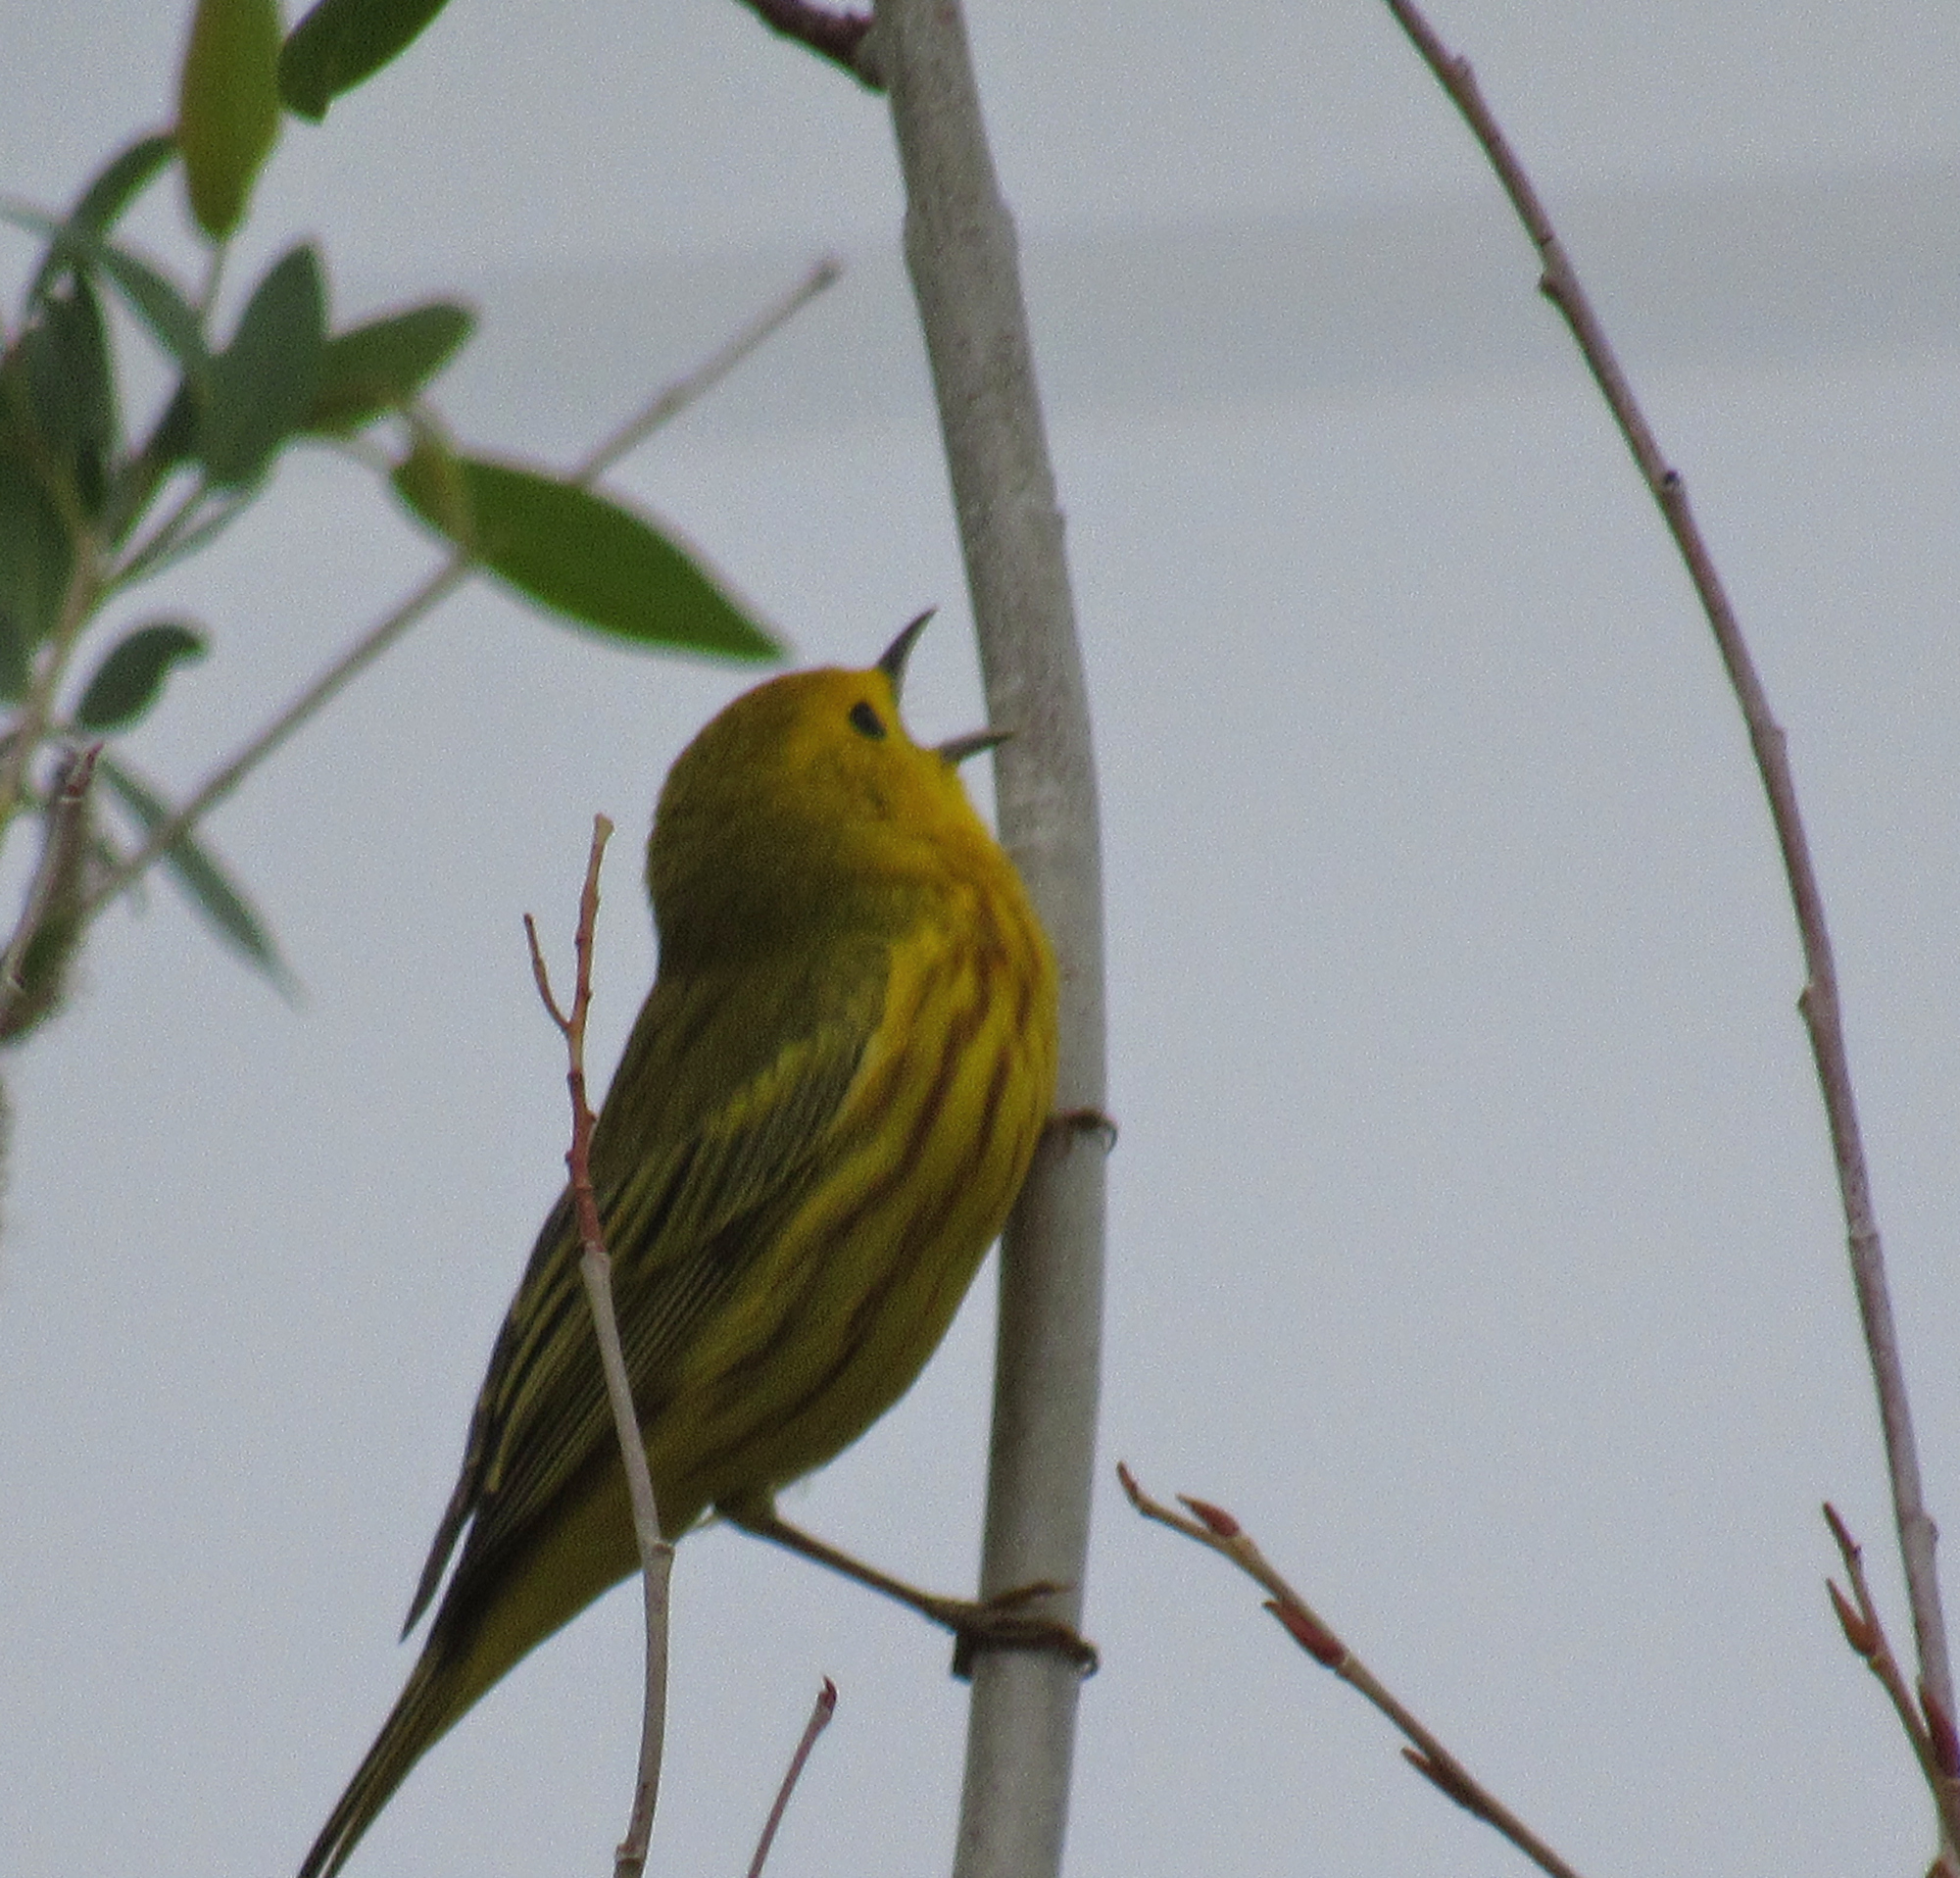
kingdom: Animalia
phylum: Chordata
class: Aves
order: Passeriformes
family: Parulidae
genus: Setophaga
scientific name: Setophaga petechia
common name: Yellow warbler
